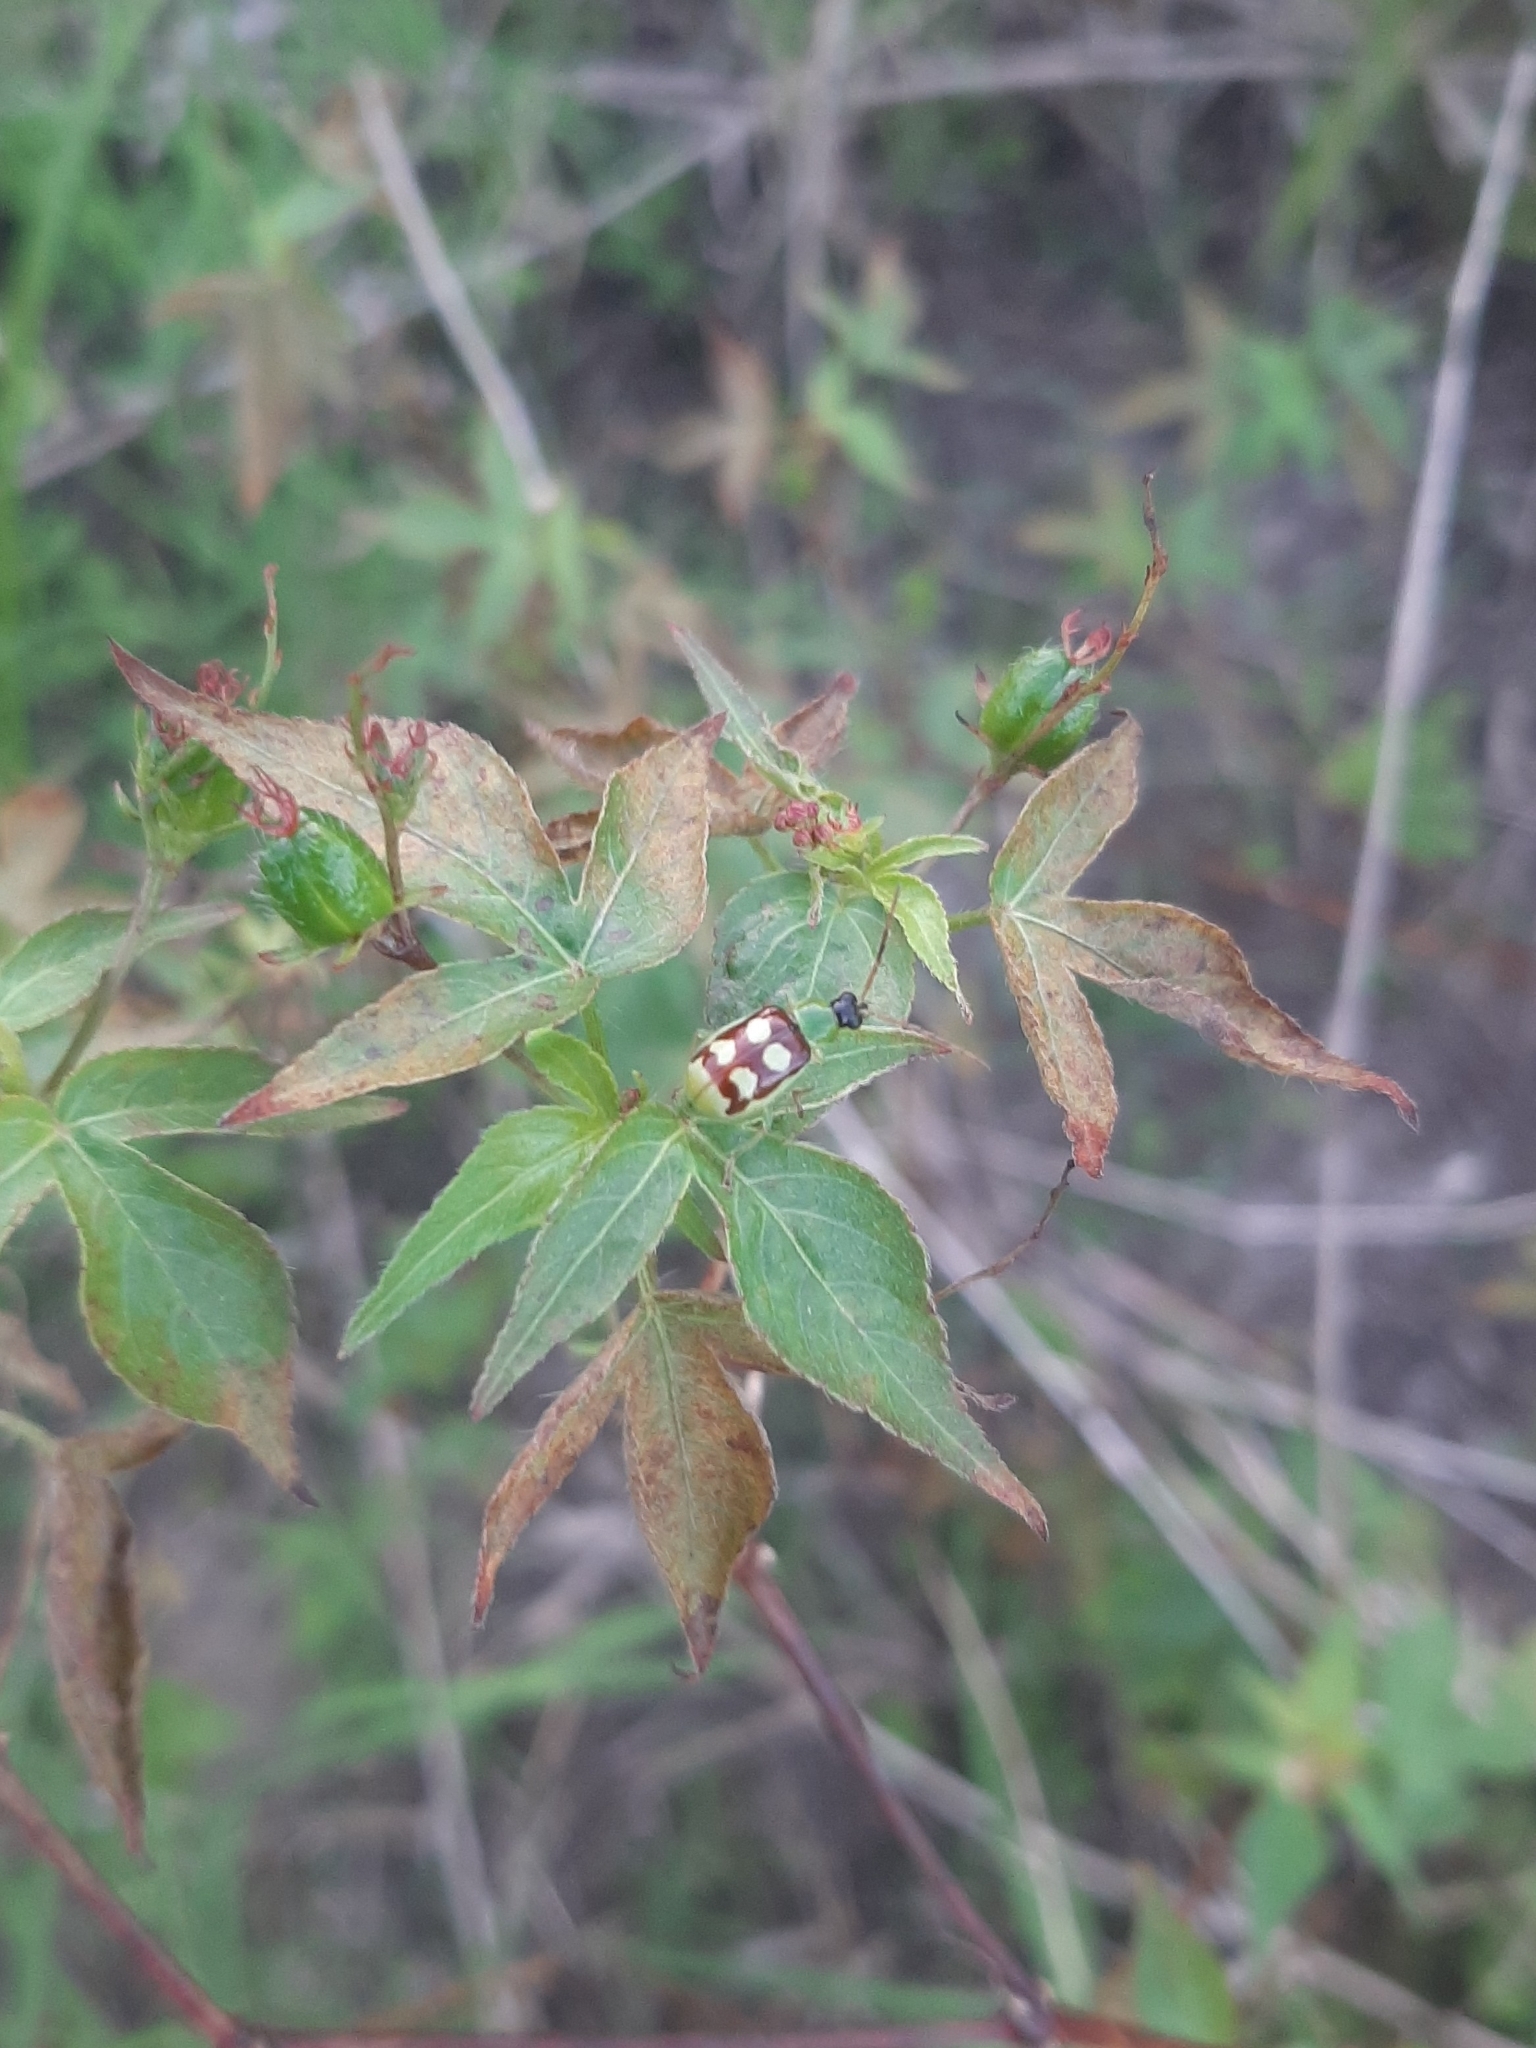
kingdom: Animalia
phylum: Arthropoda
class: Insecta
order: Coleoptera
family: Chrysomelidae
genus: Basiprionota
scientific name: Basiprionota sinuata
